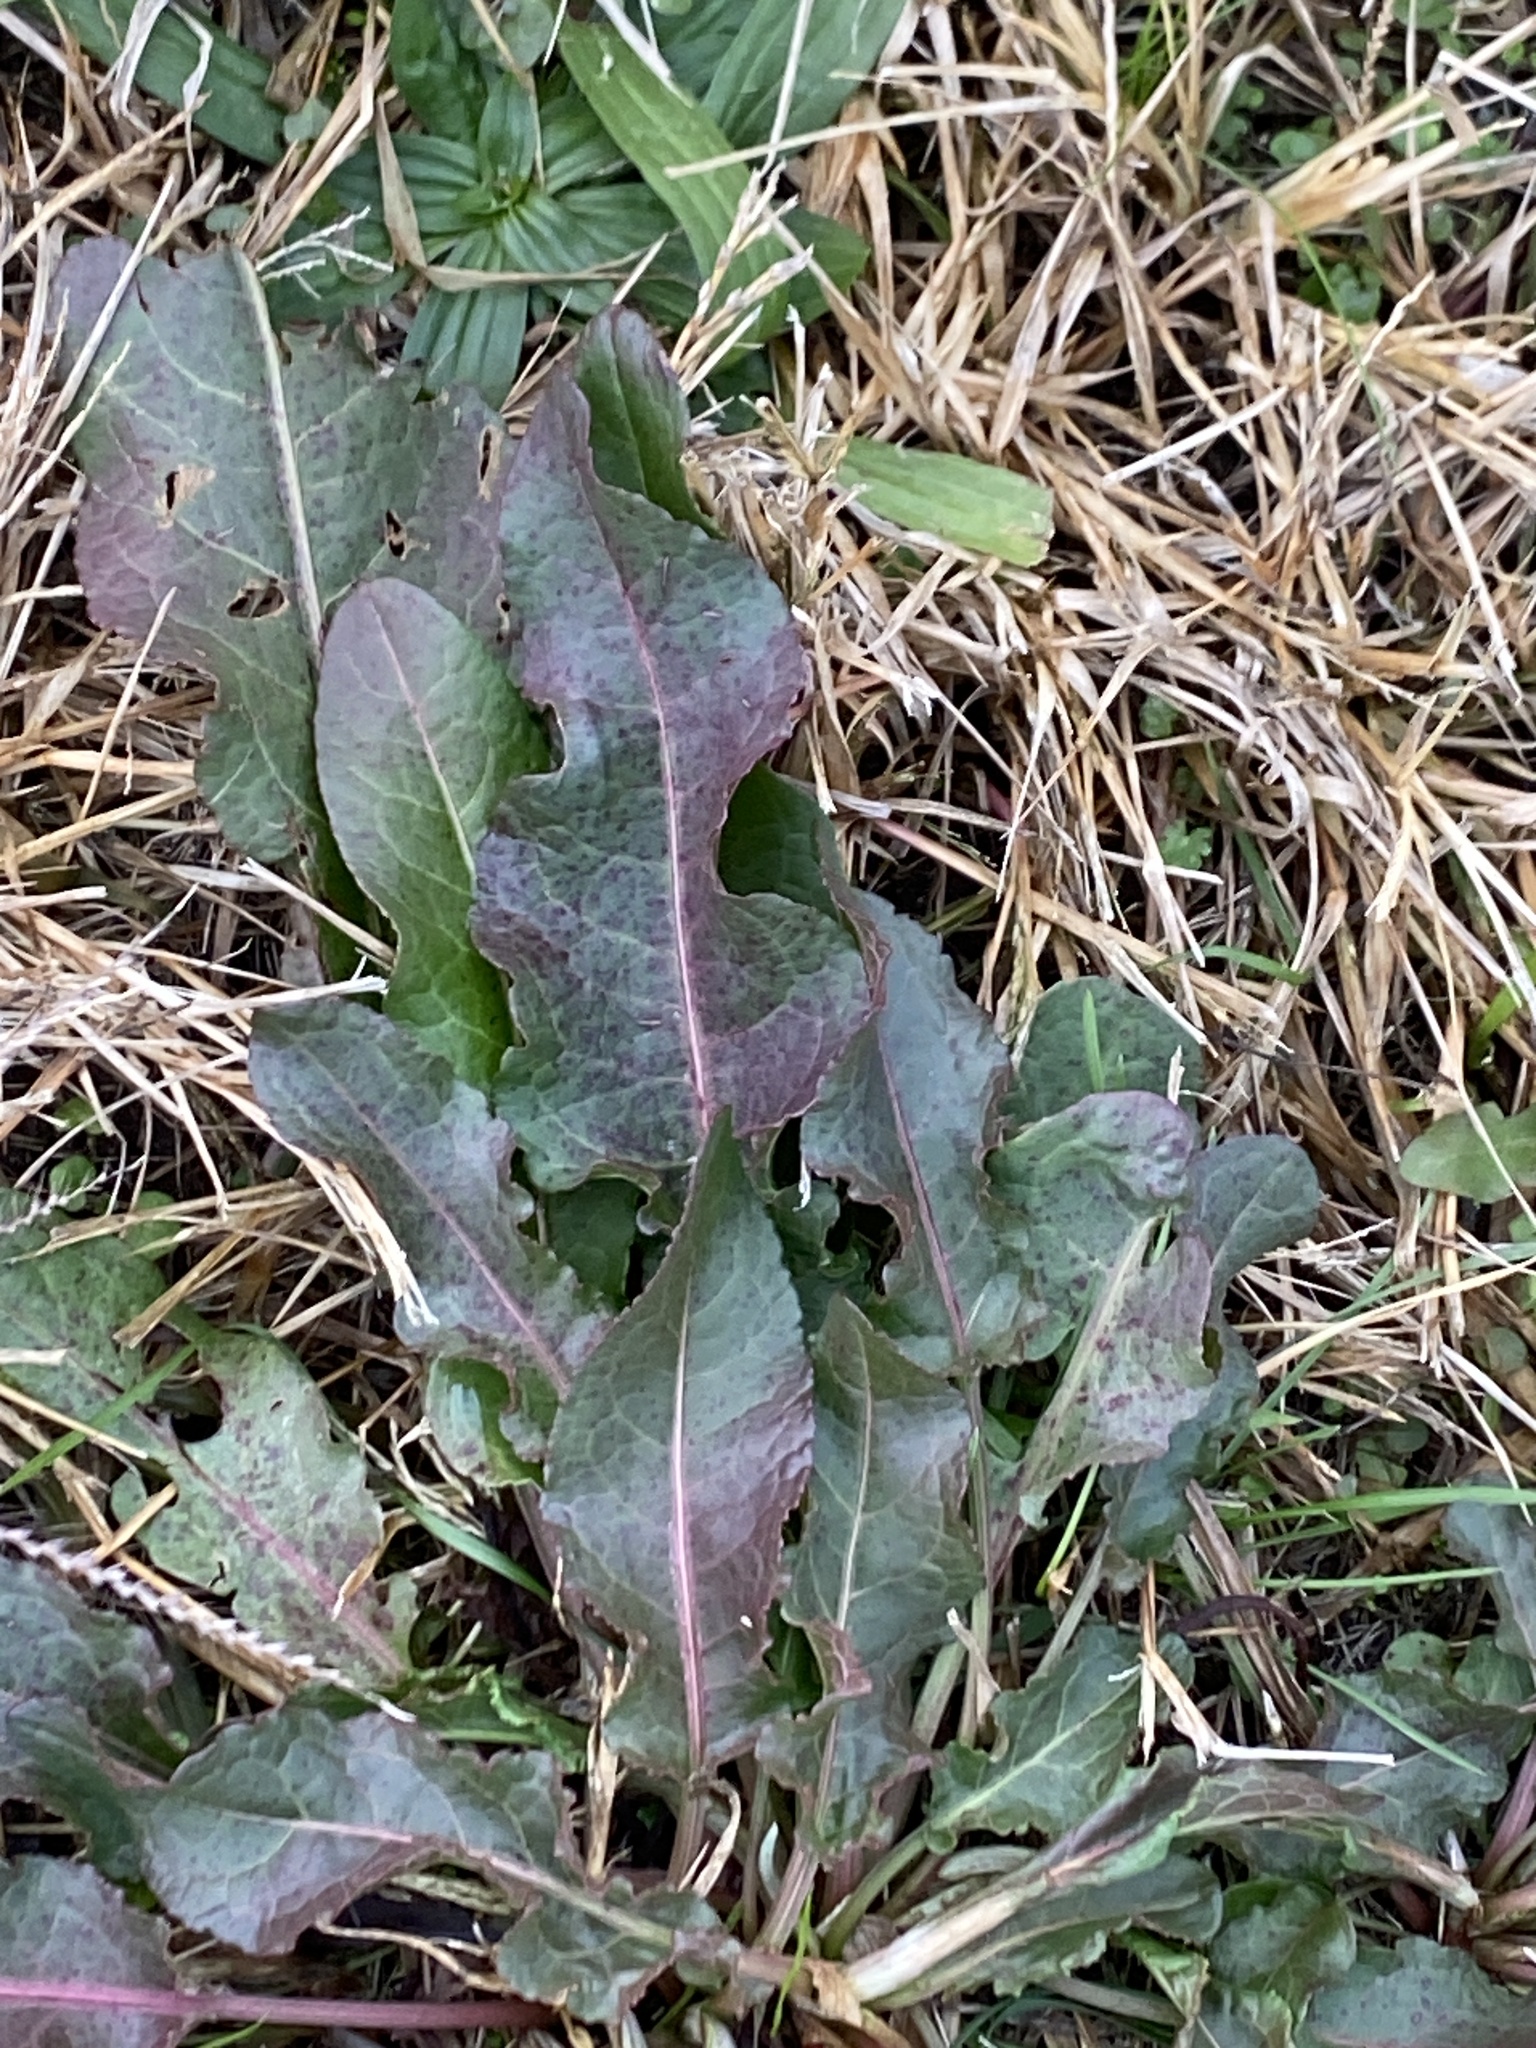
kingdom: Plantae
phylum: Tracheophyta
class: Magnoliopsida
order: Caryophyllales
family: Polygonaceae
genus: Rumex
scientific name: Rumex crispus
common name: Curled dock
